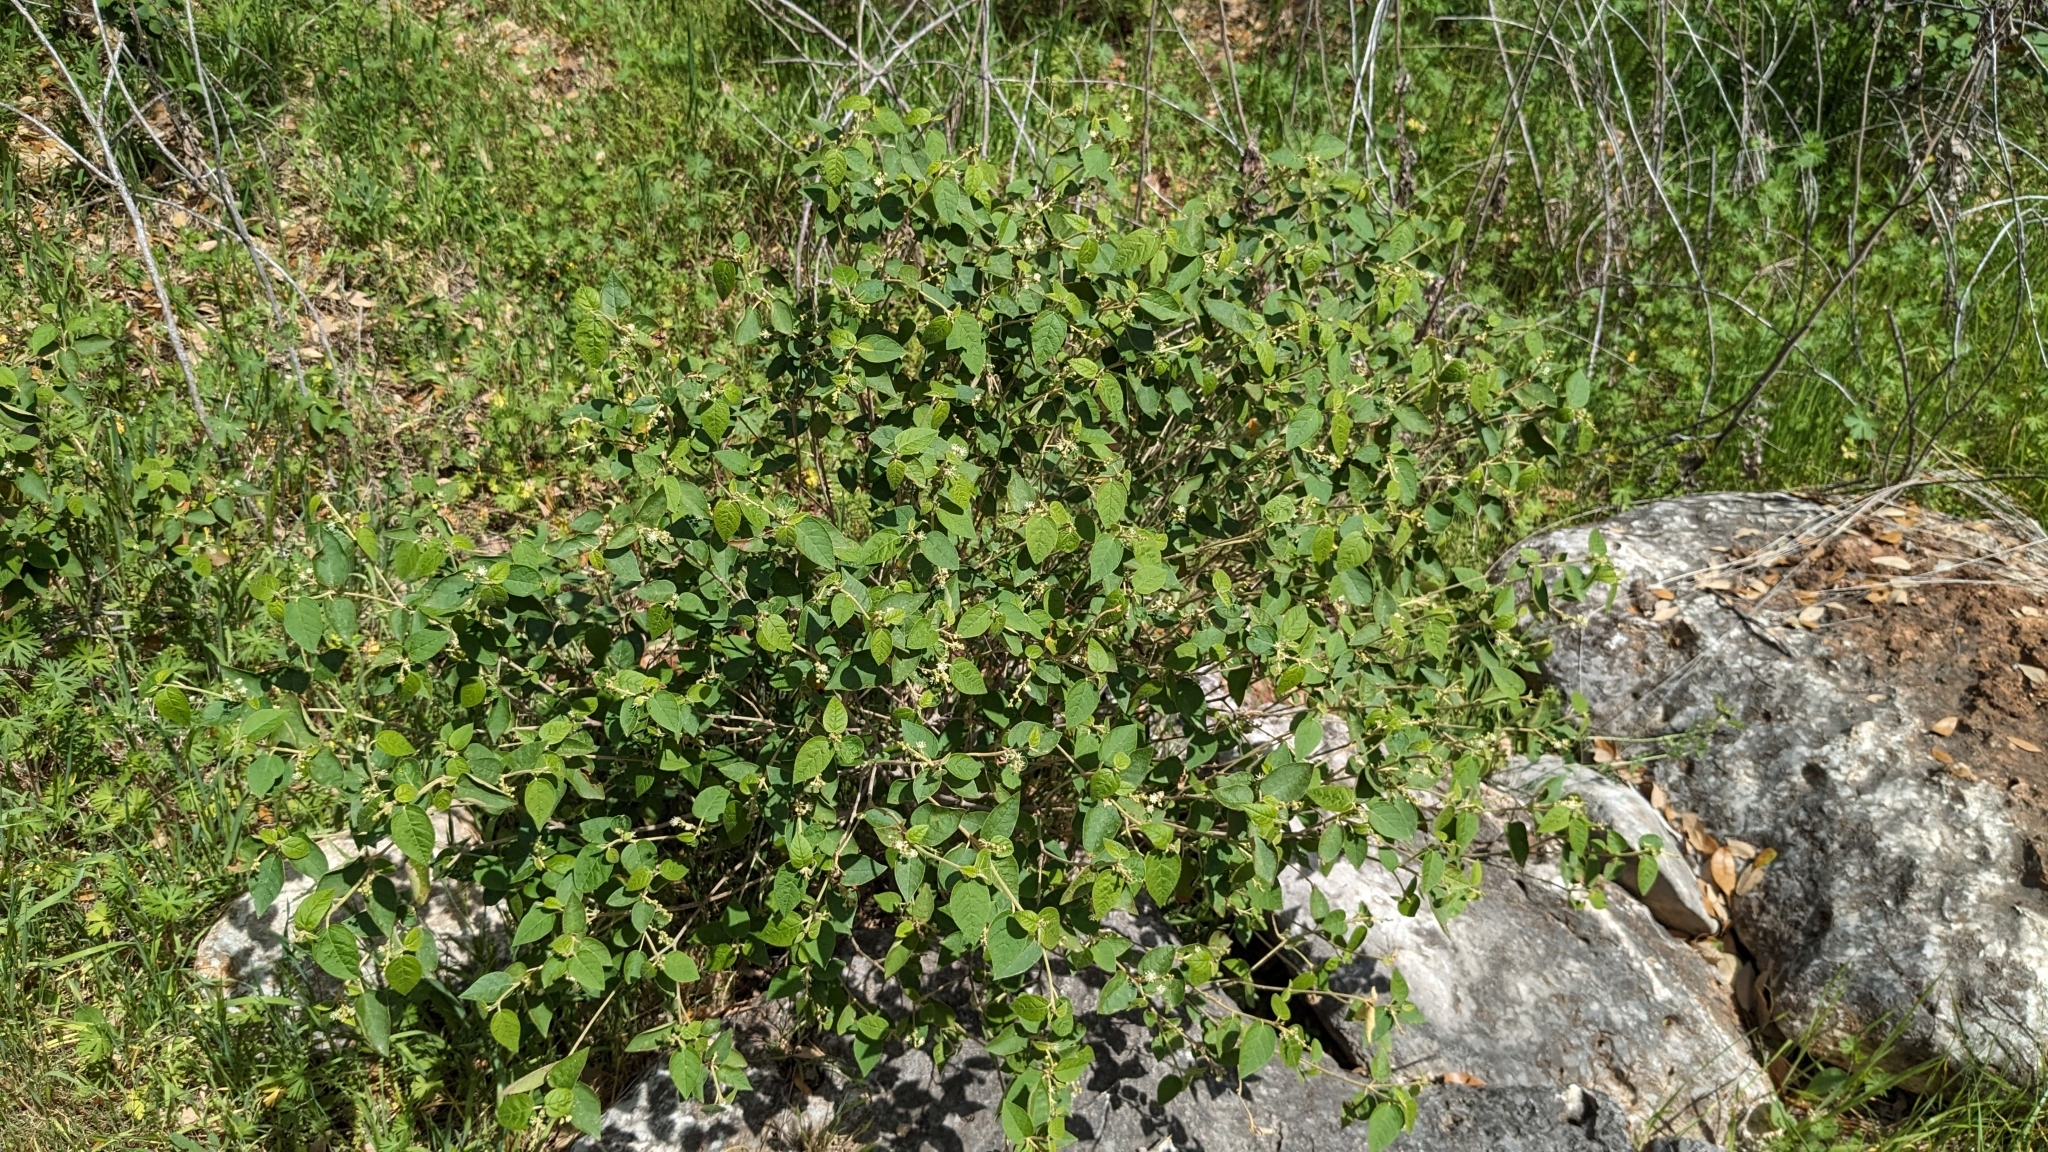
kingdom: Plantae
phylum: Tracheophyta
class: Magnoliopsida
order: Malpighiales
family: Euphorbiaceae
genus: Croton
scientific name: Croton fruticulosus
